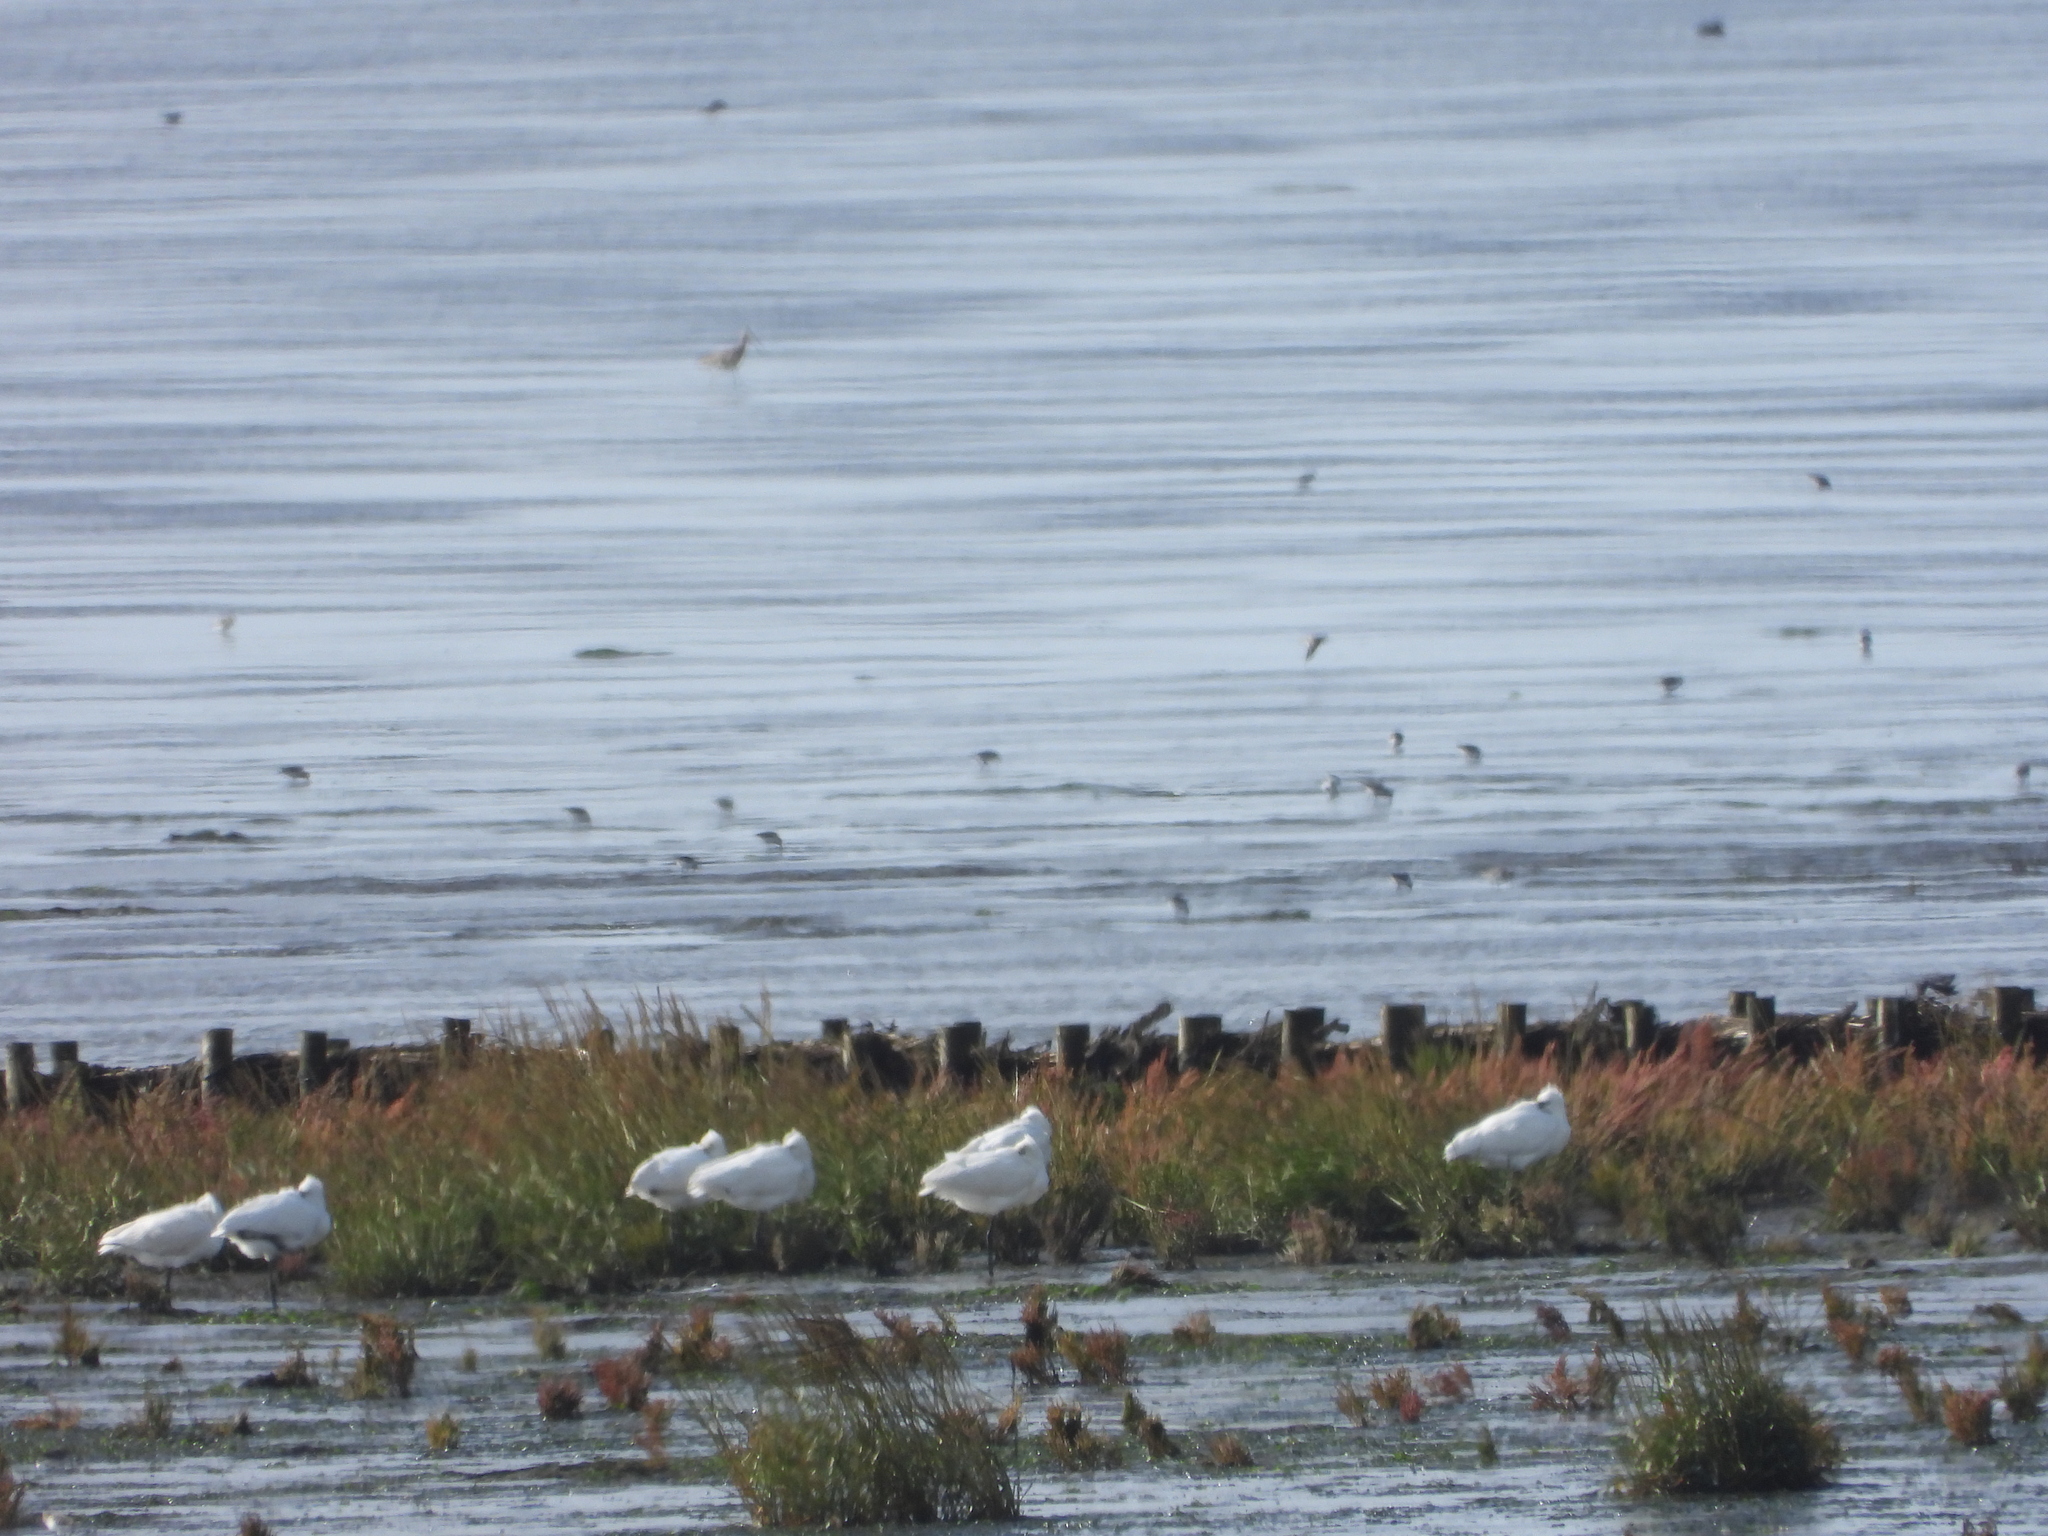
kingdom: Animalia
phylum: Chordata
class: Aves
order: Pelecaniformes
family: Threskiornithidae
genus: Platalea
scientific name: Platalea leucorodia
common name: Eurasian spoonbill
